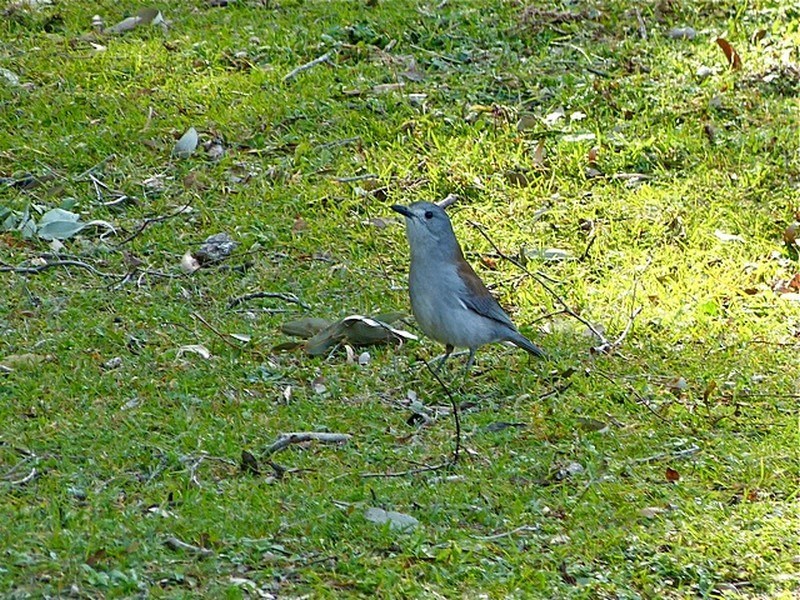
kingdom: Animalia
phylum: Chordata
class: Aves
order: Passeriformes
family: Pachycephalidae
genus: Colluricincla
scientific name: Colluricincla harmonica
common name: Grey shrikethrush
